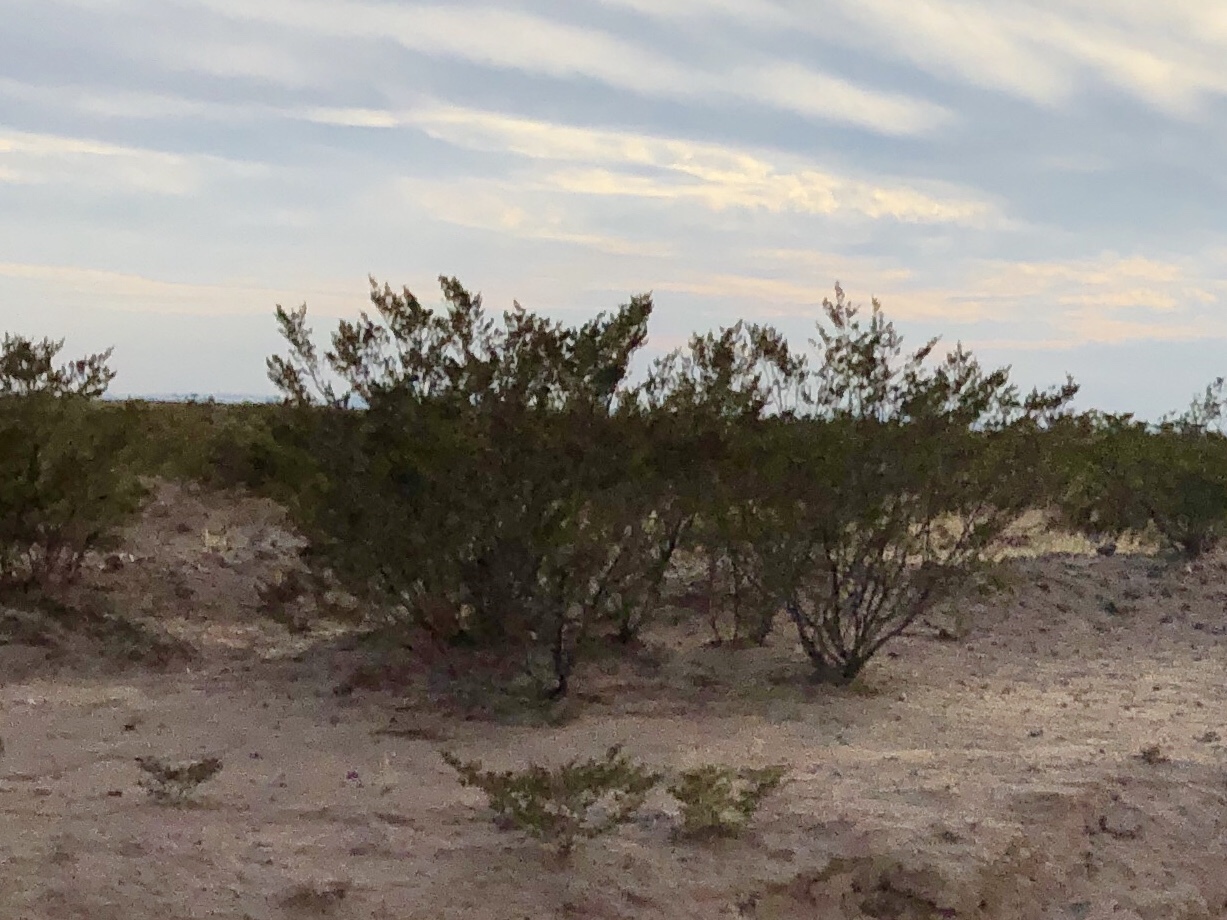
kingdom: Plantae
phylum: Tracheophyta
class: Magnoliopsida
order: Zygophyllales
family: Zygophyllaceae
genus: Larrea
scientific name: Larrea tridentata
